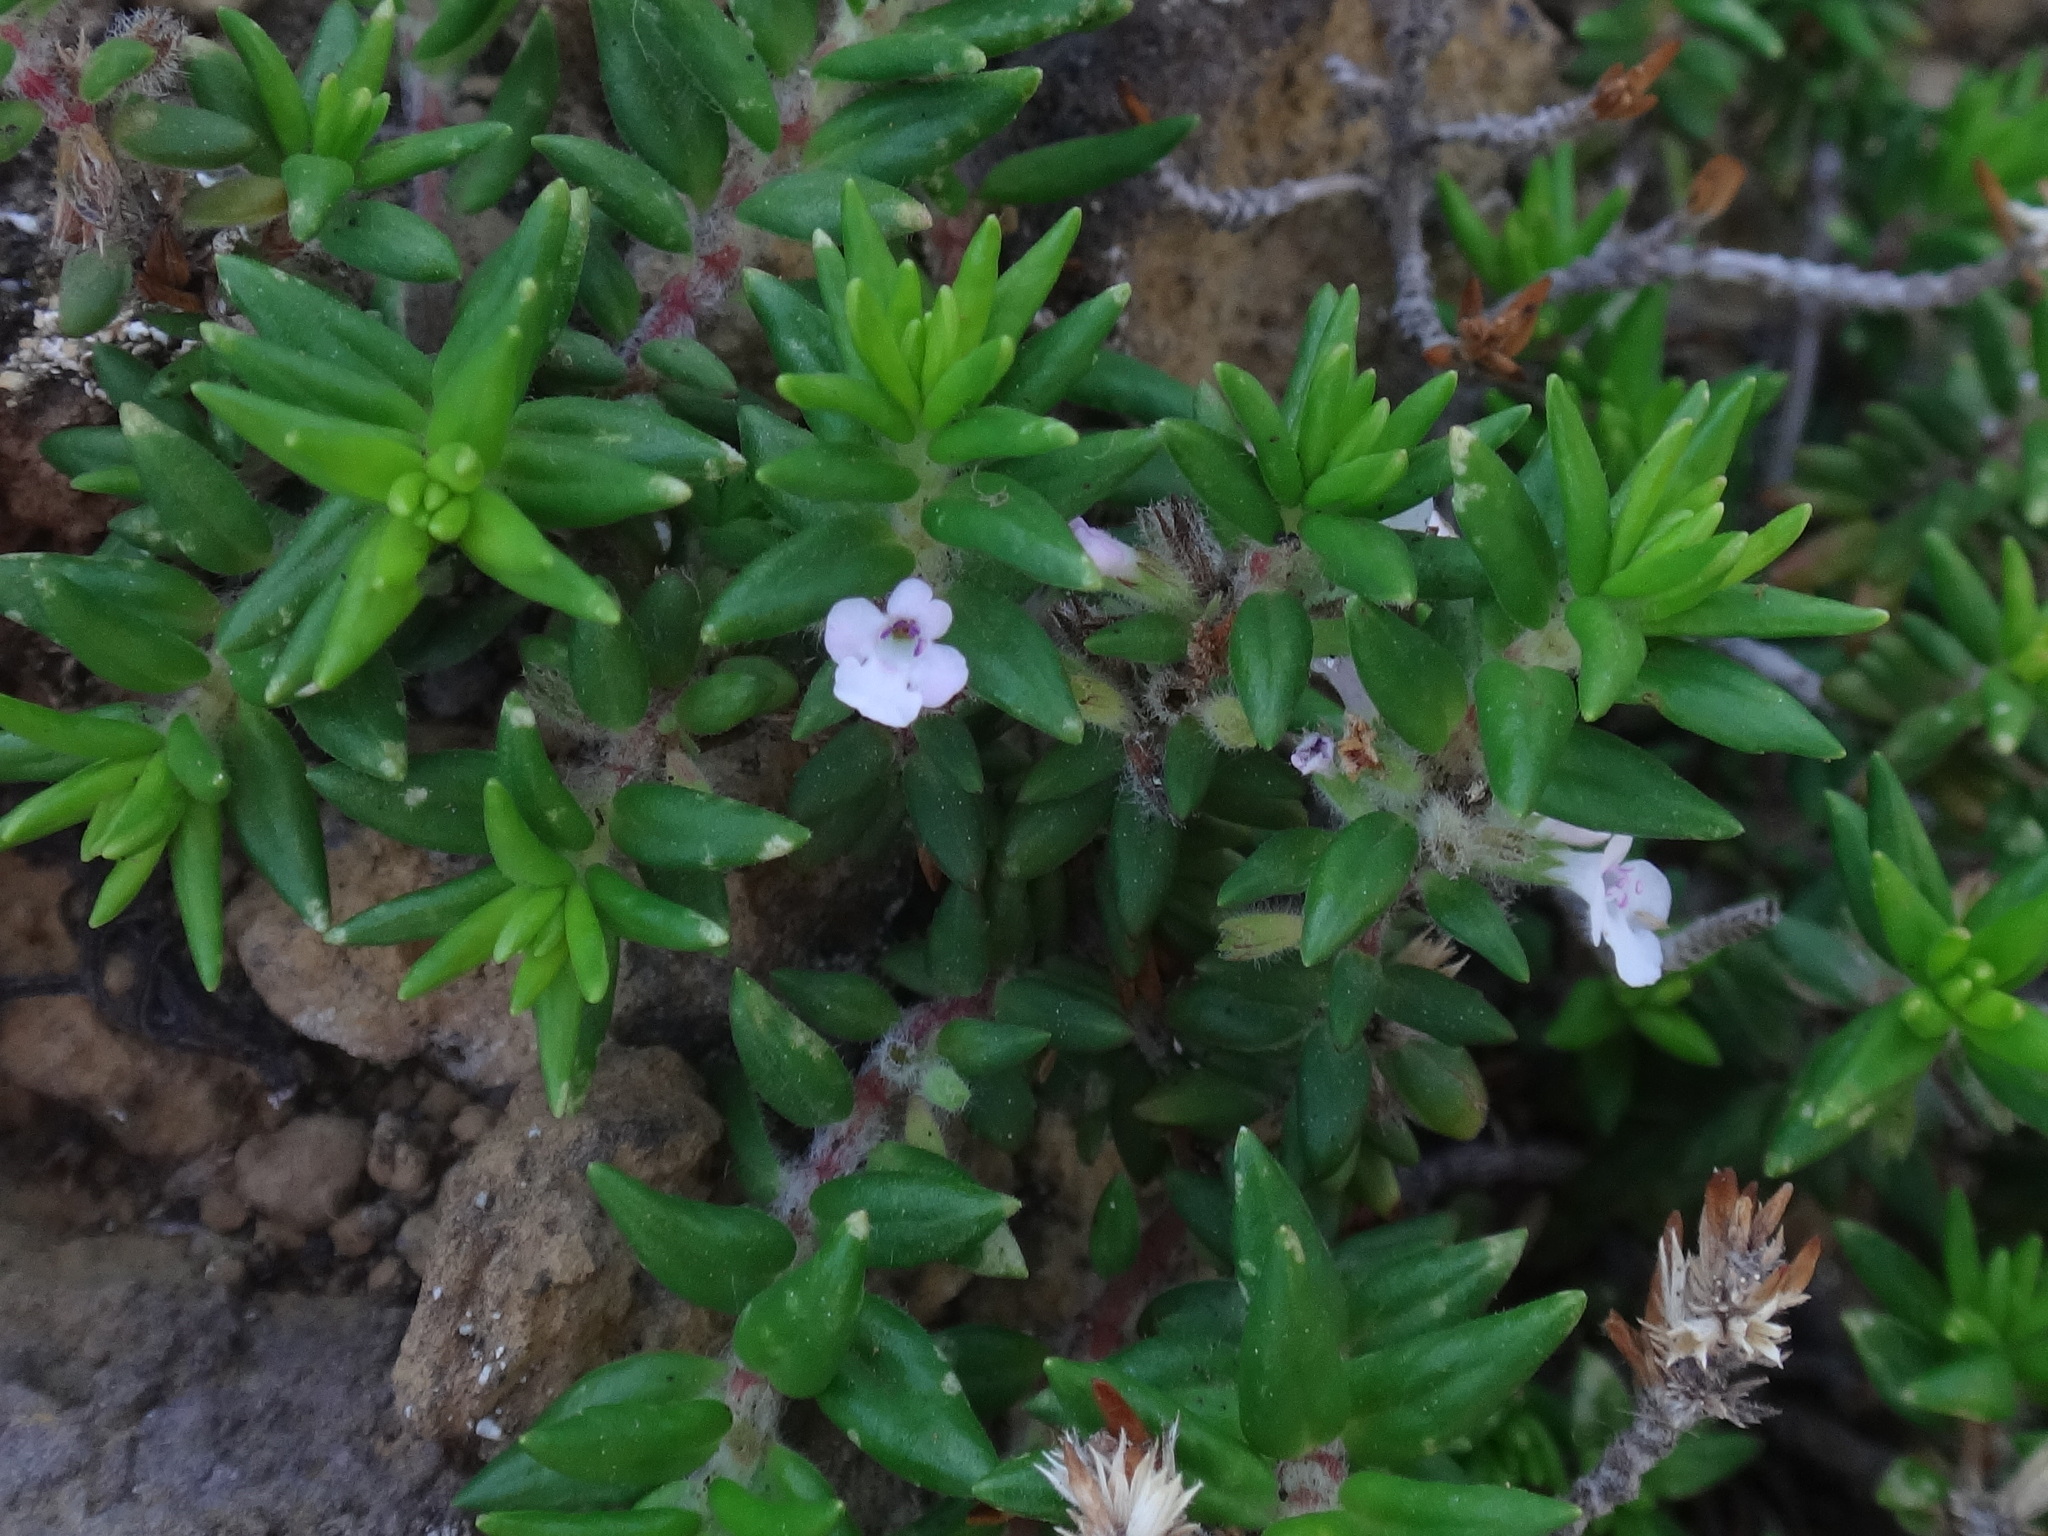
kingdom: Plantae
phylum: Tracheophyta
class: Magnoliopsida
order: Lamiales
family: Lamiaceae
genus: Micromeria
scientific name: Micromeria herpyllomorpha
